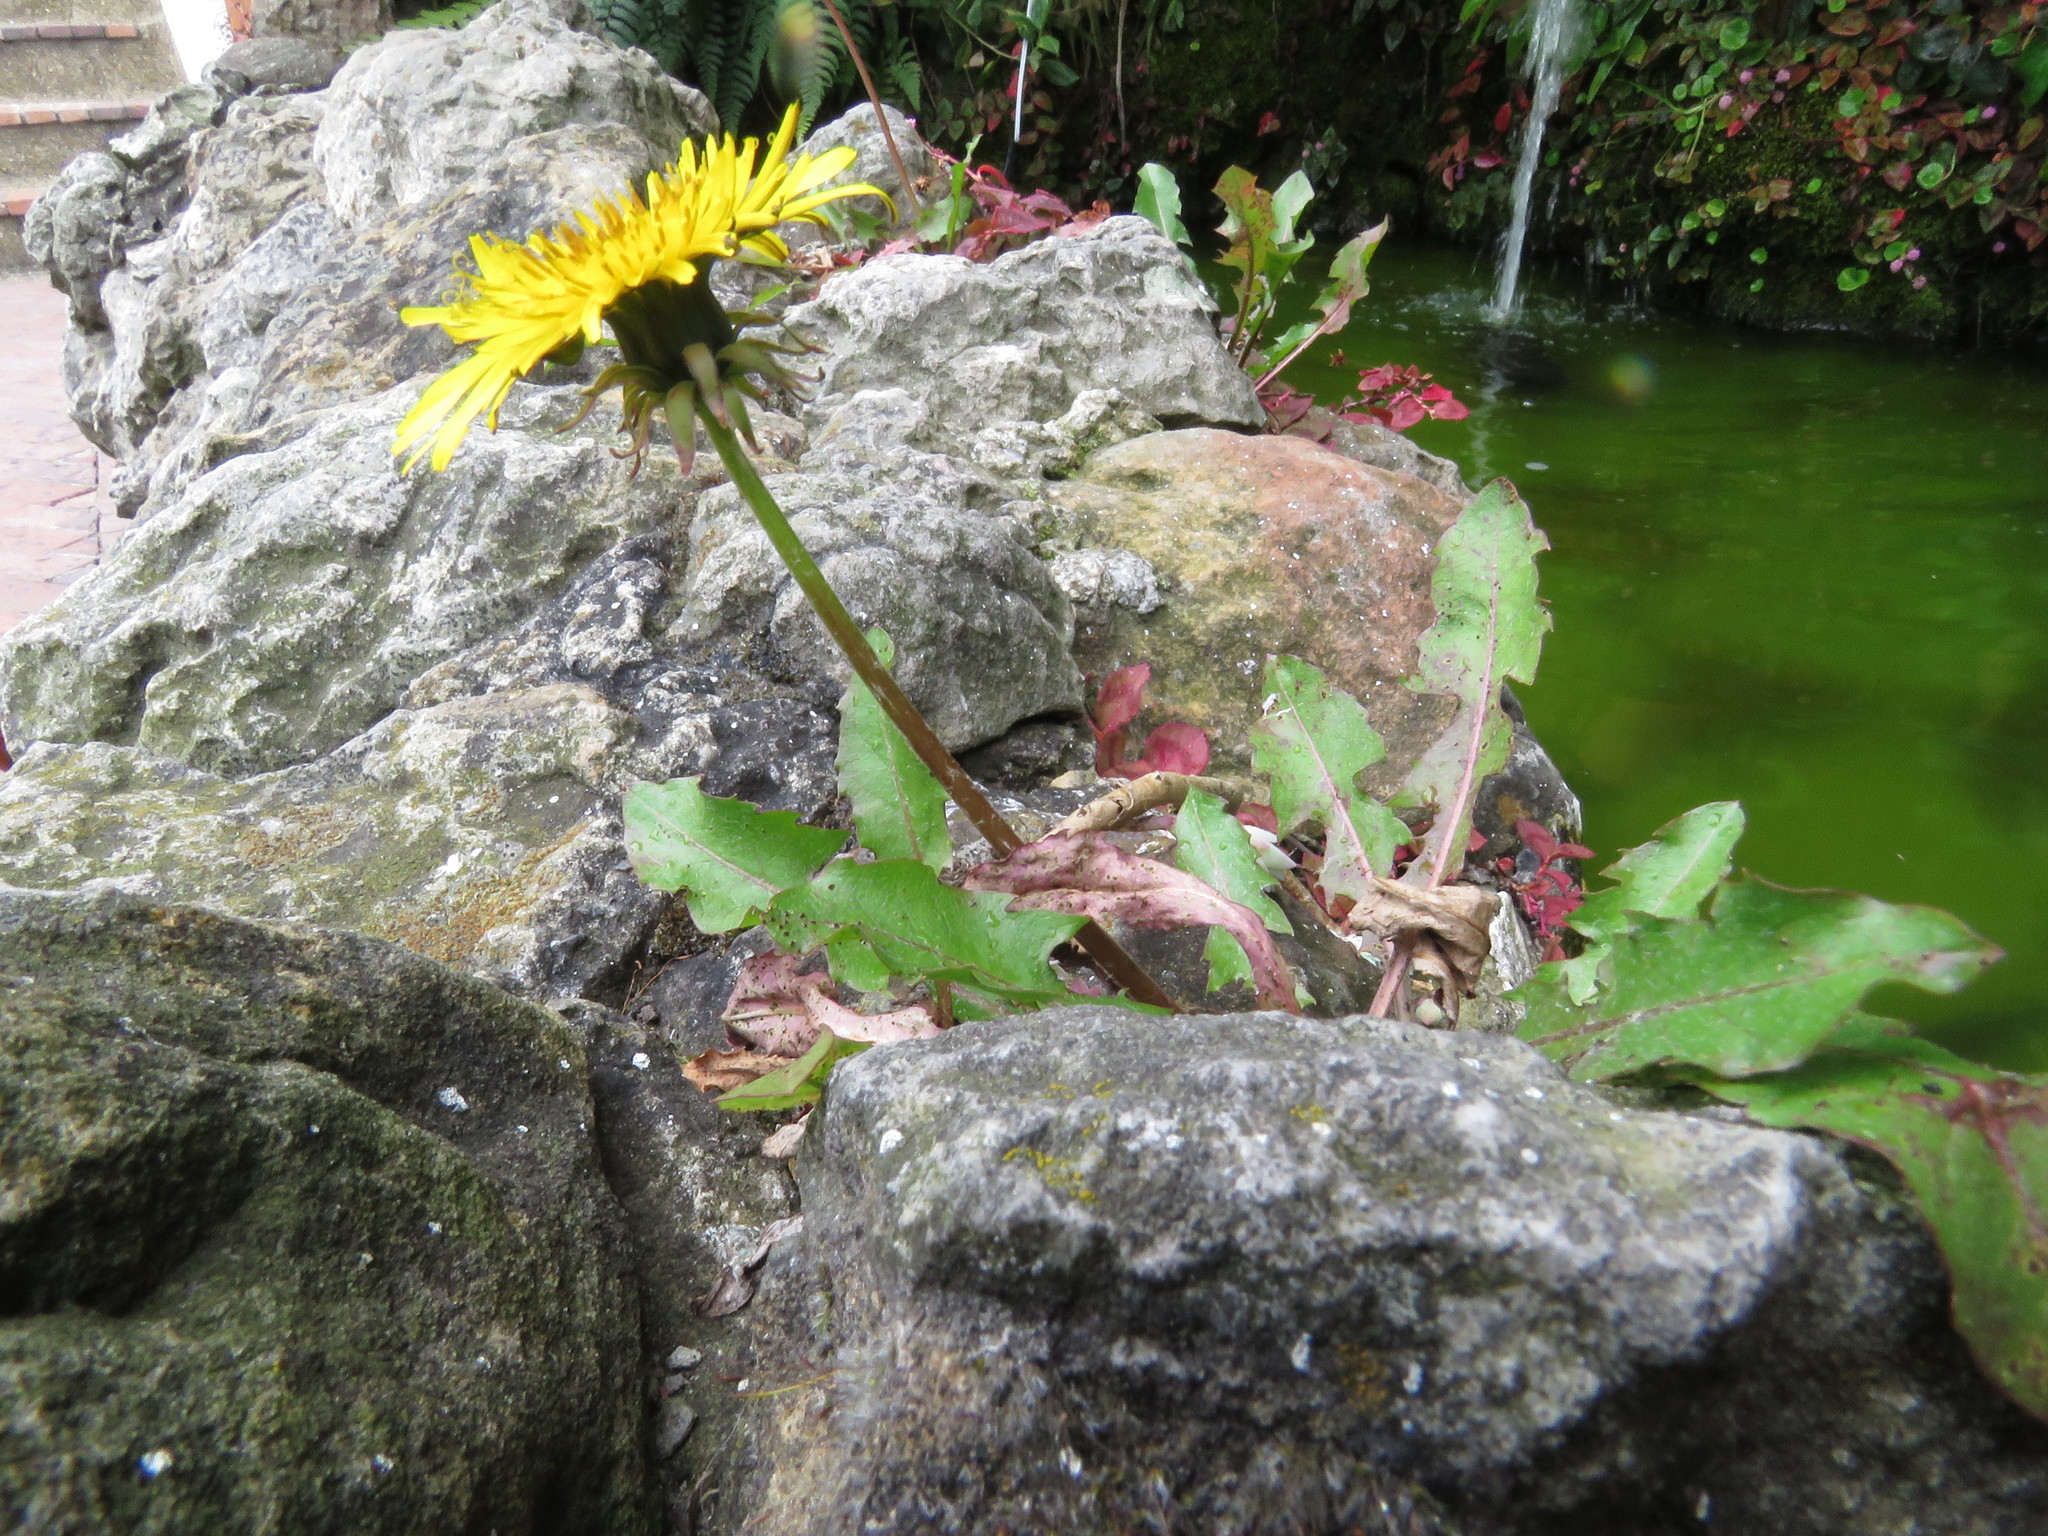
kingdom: Plantae
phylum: Tracheophyta
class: Magnoliopsida
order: Asterales
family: Asteraceae
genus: Taraxacum
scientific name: Taraxacum officinale
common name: Common dandelion
